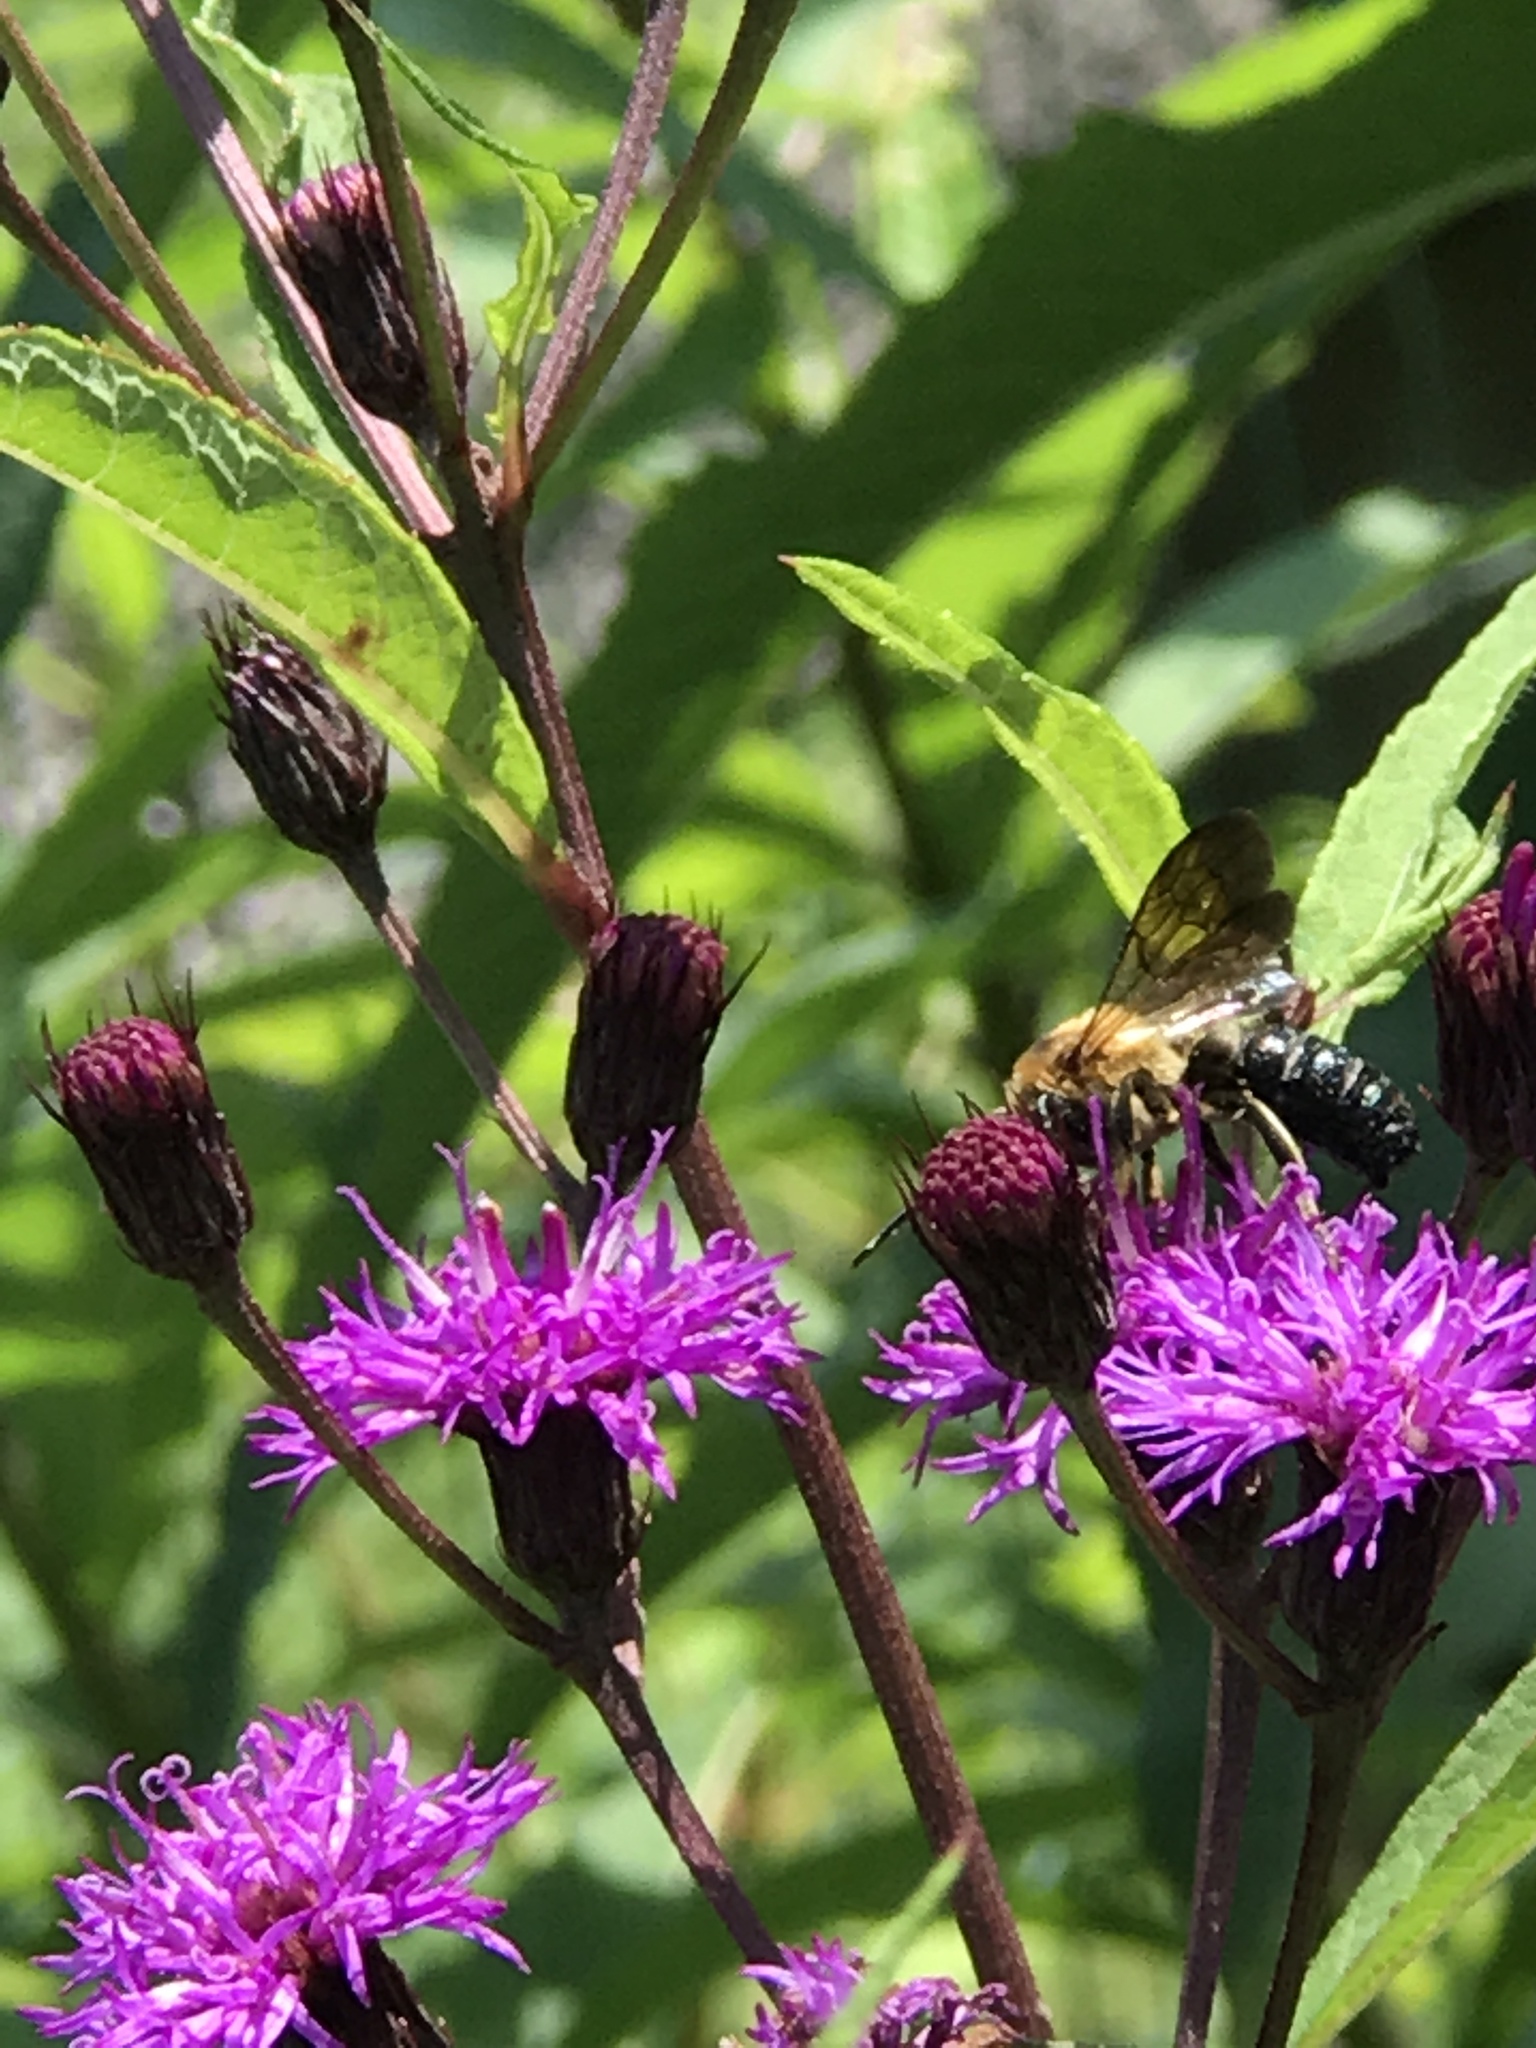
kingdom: Animalia
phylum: Arthropoda
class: Insecta
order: Hymenoptera
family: Megachilidae
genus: Megachile
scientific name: Megachile sculpturalis
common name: Sculptured resin bee
